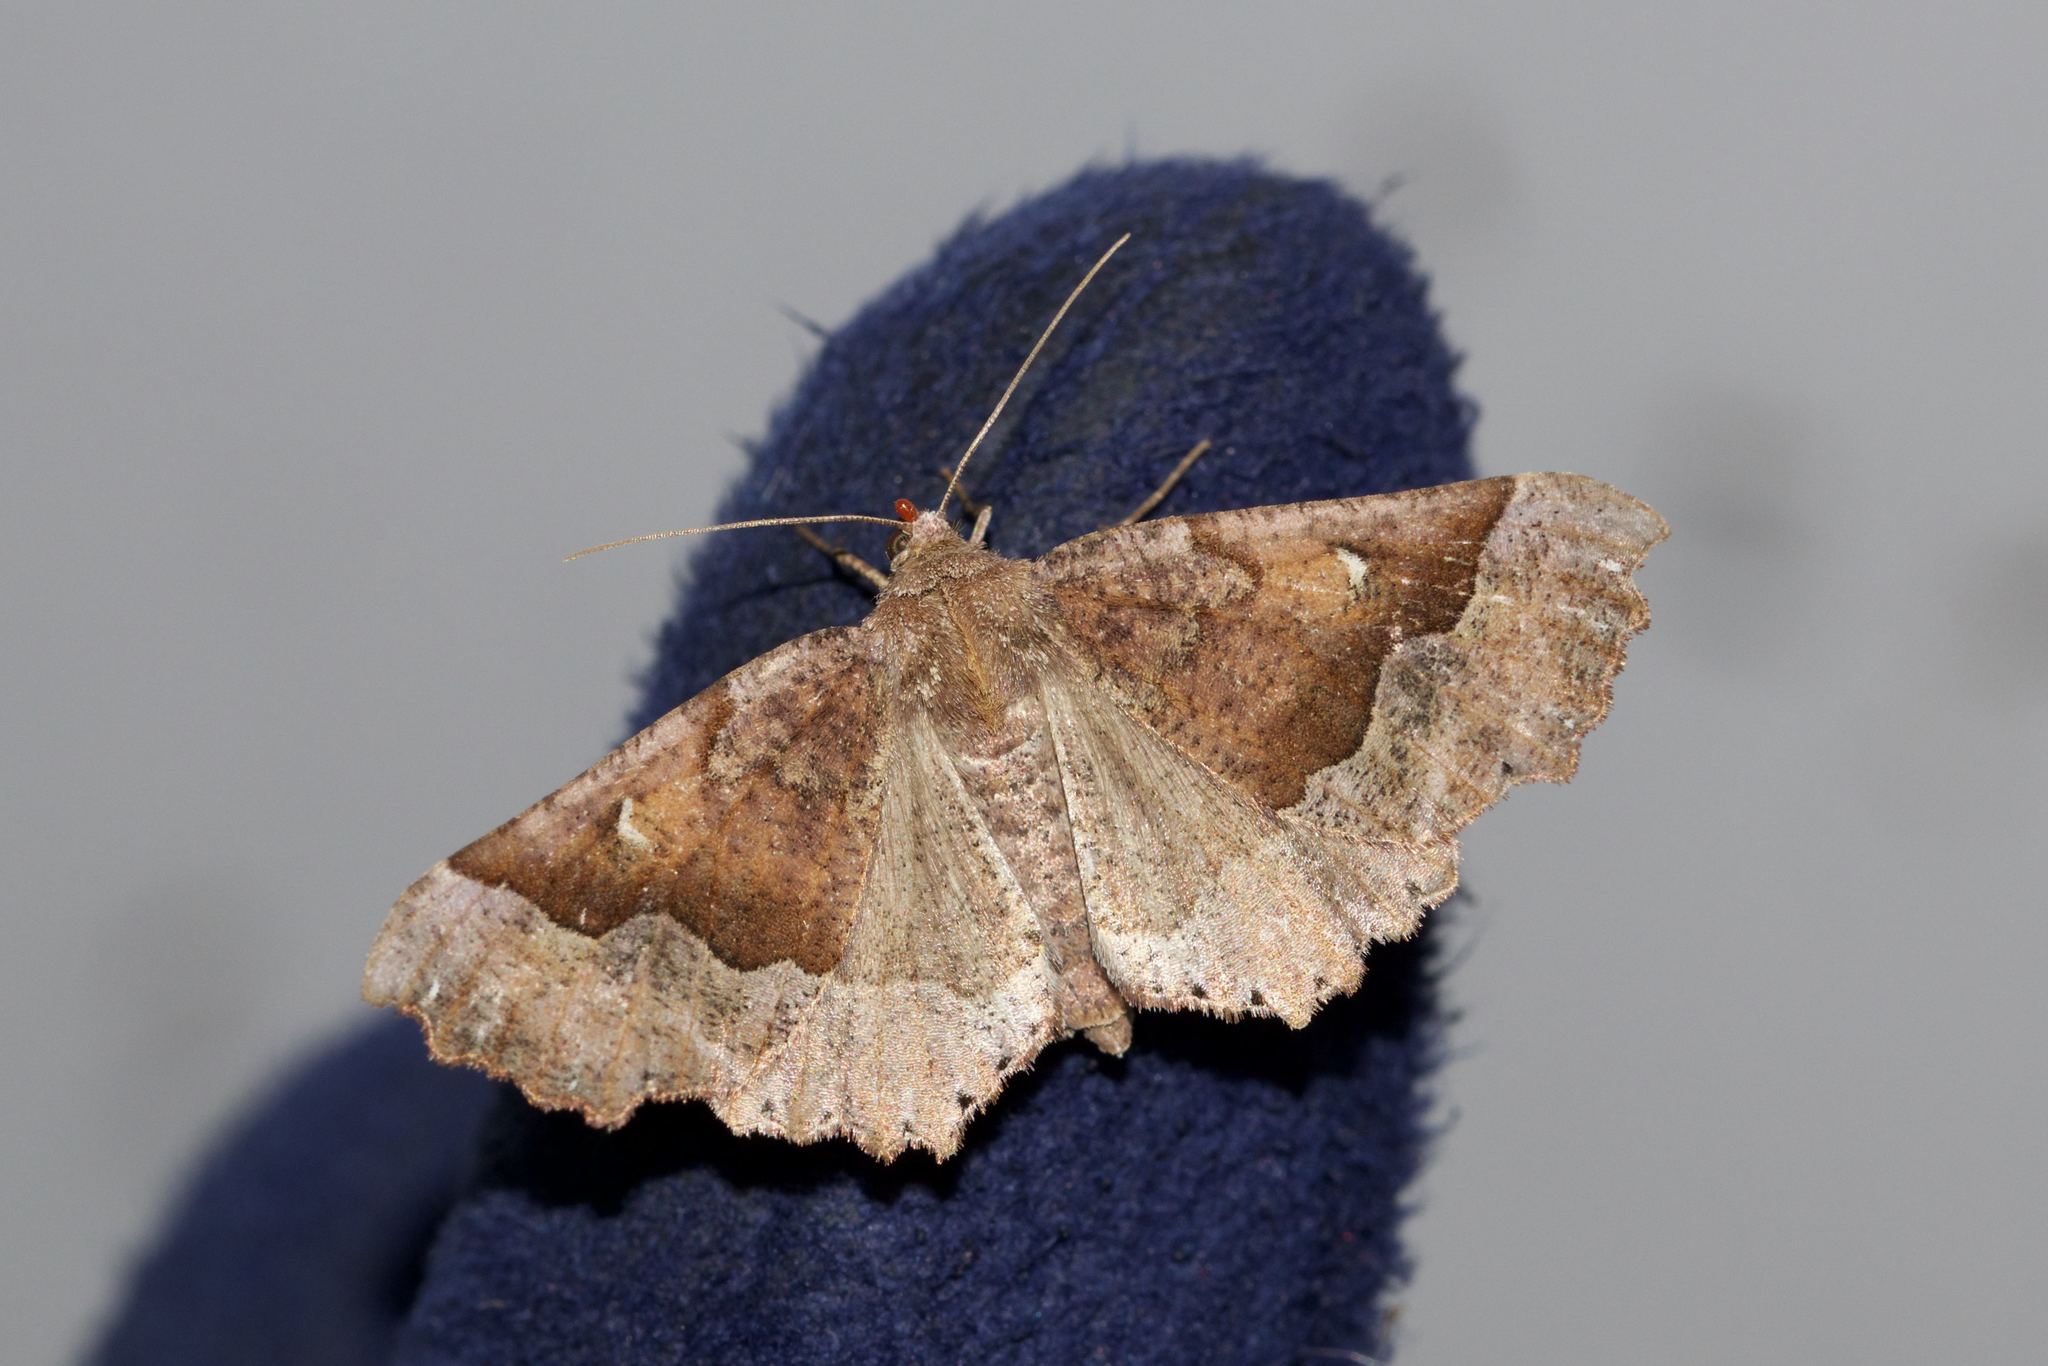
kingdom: Animalia
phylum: Arthropoda
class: Insecta
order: Lepidoptera
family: Geometridae
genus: Pero
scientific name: Pero morrisonaria
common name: Morrison's pero
